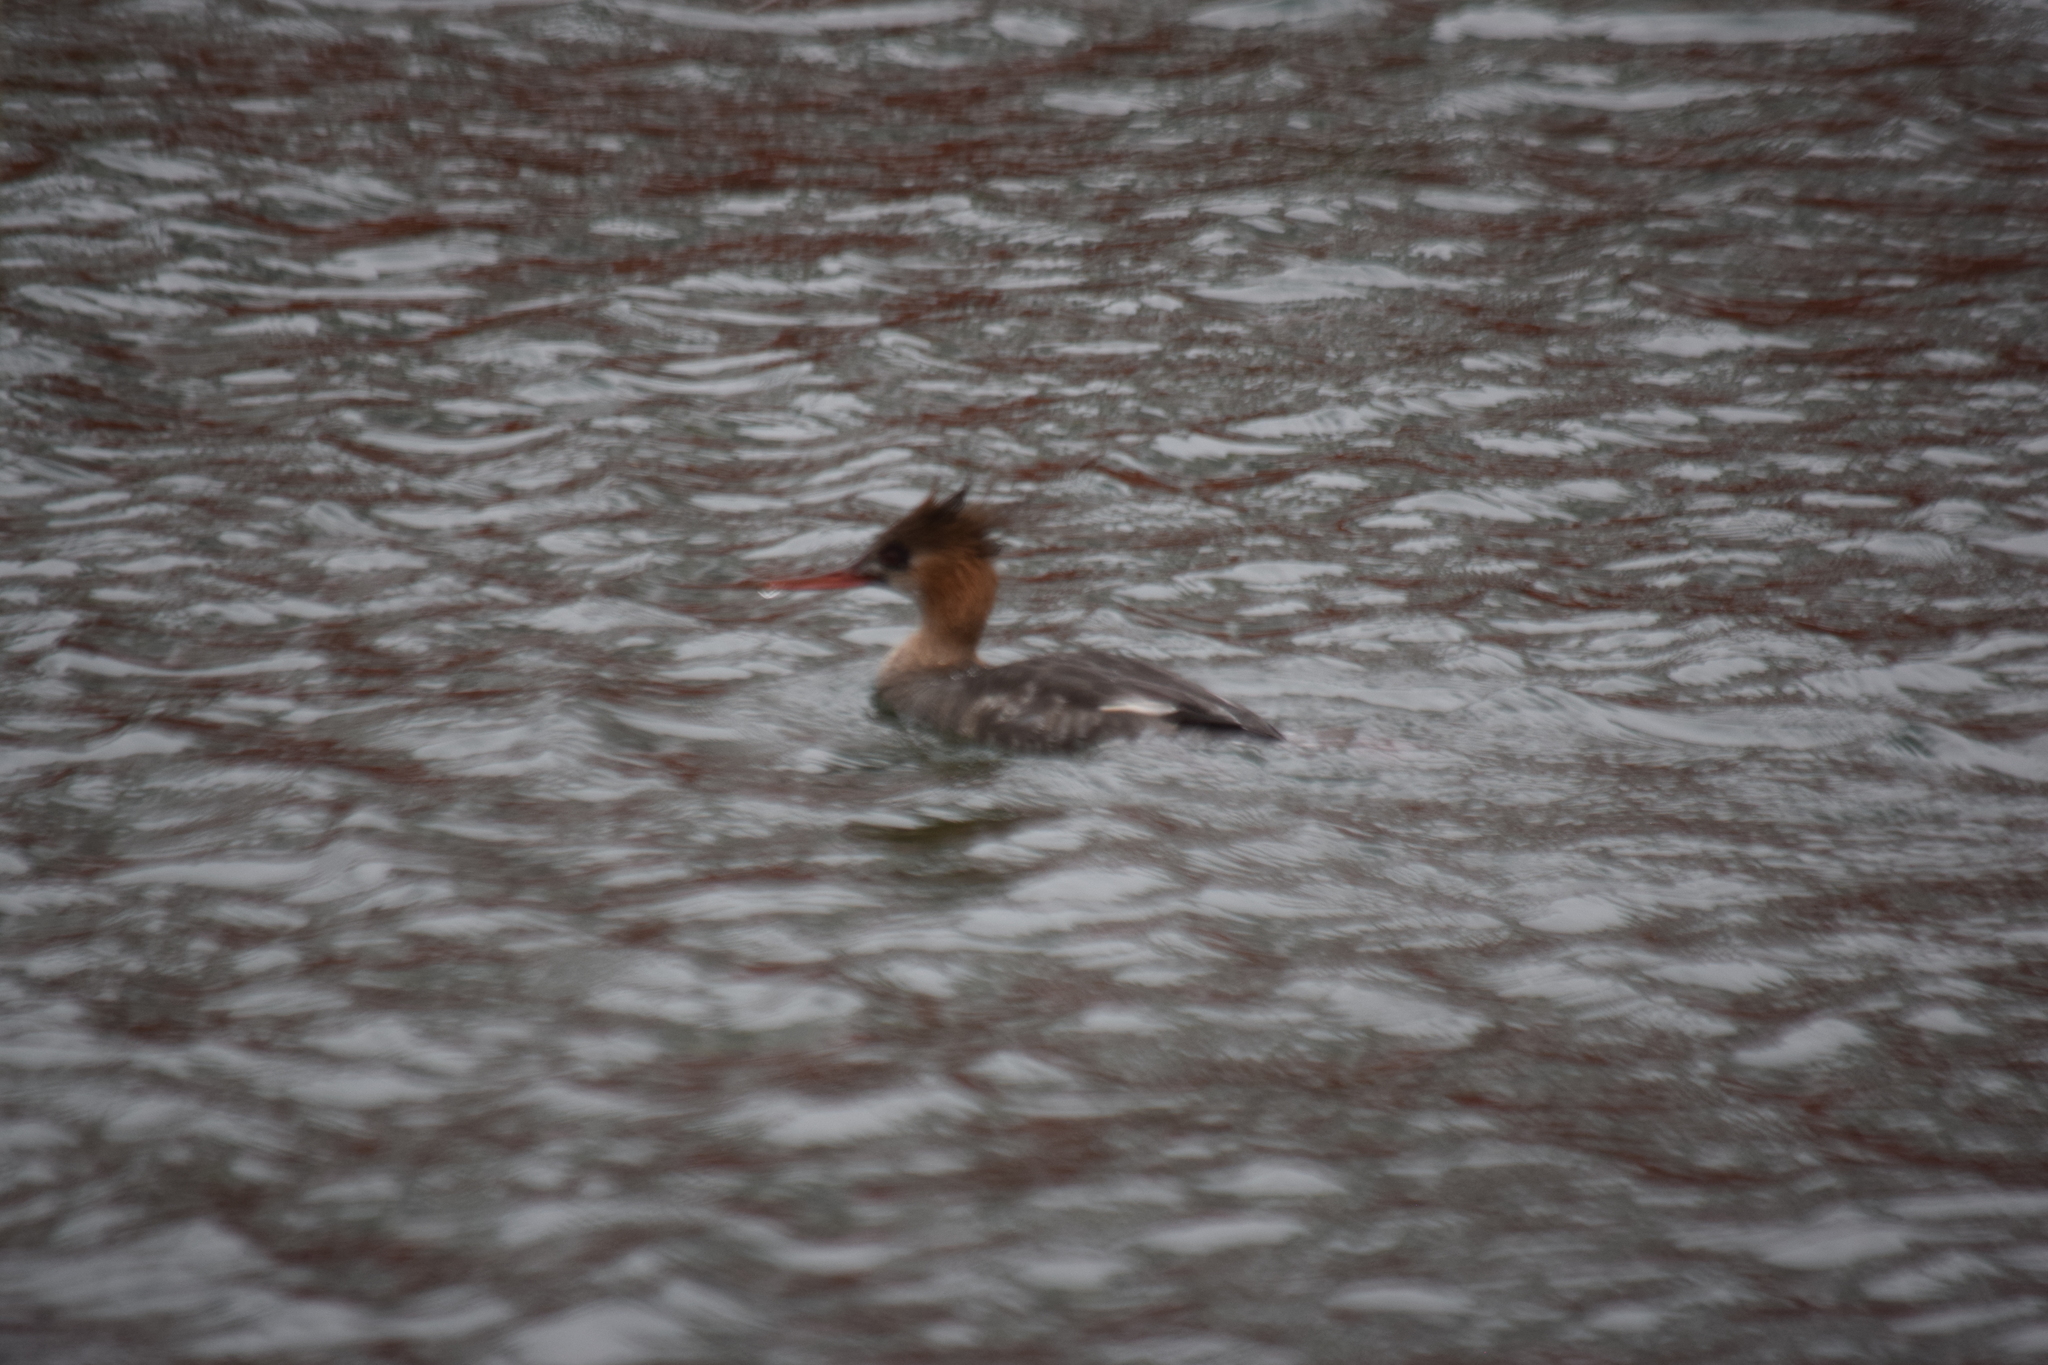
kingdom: Animalia
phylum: Chordata
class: Aves
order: Anseriformes
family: Anatidae
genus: Mergus
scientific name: Mergus serrator
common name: Red-breasted merganser
